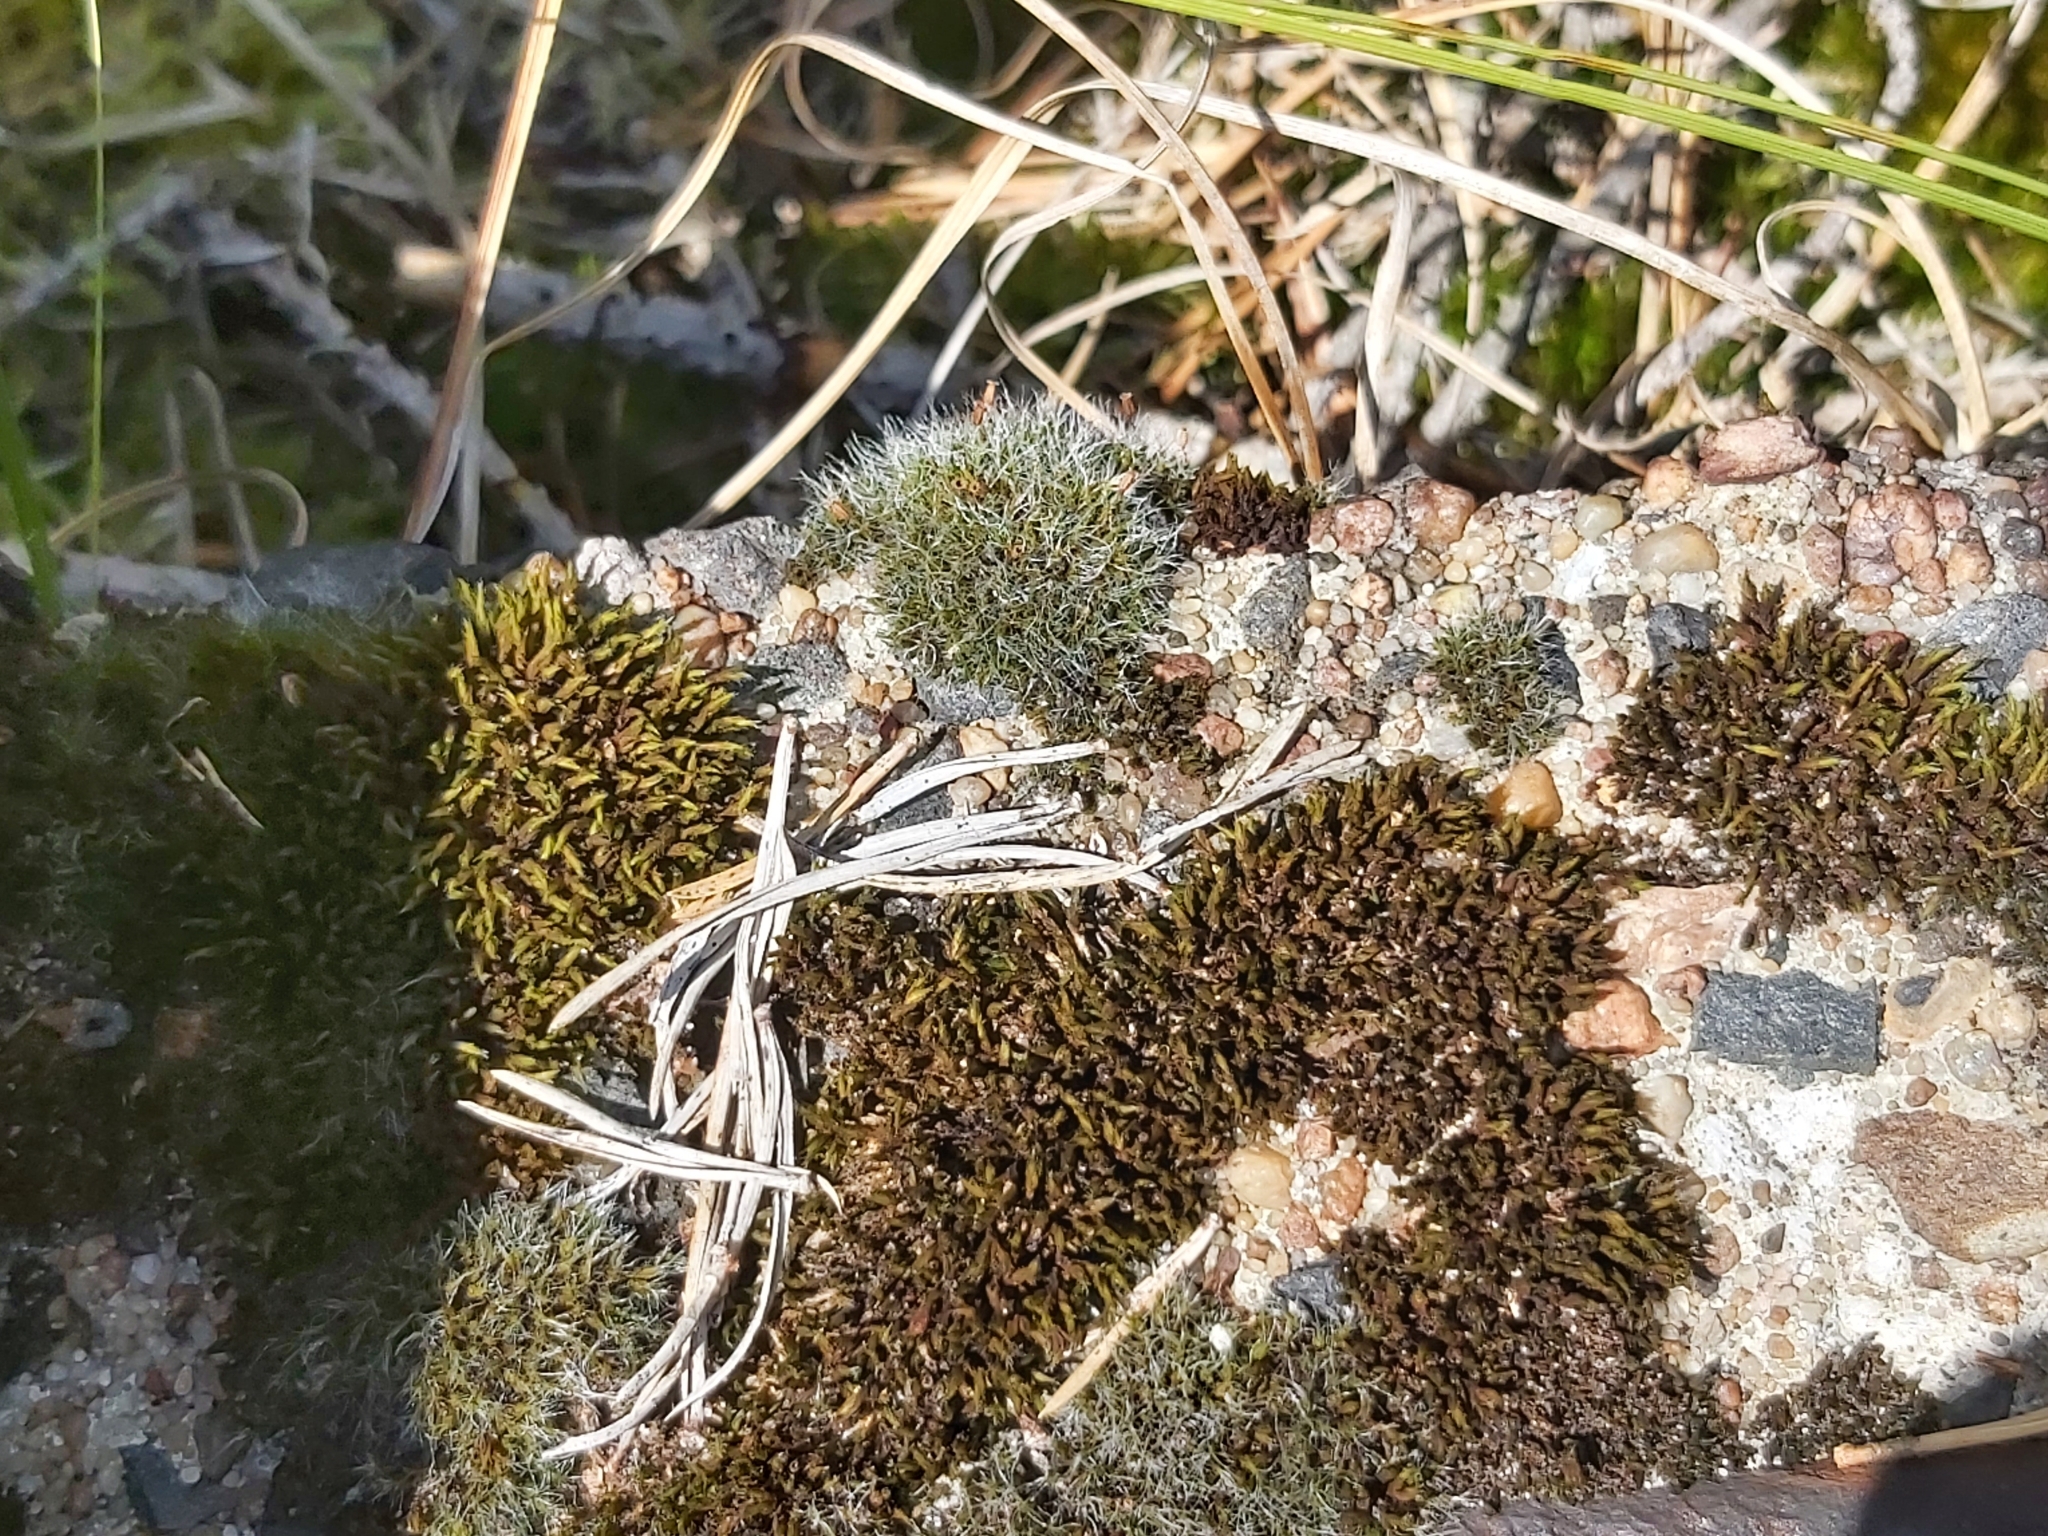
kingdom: Plantae
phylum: Bryophyta
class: Bryopsida
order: Grimmiales
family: Grimmiaceae
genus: Grimmia
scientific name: Grimmia pulvinata
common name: Grey-cushioned grimmia
